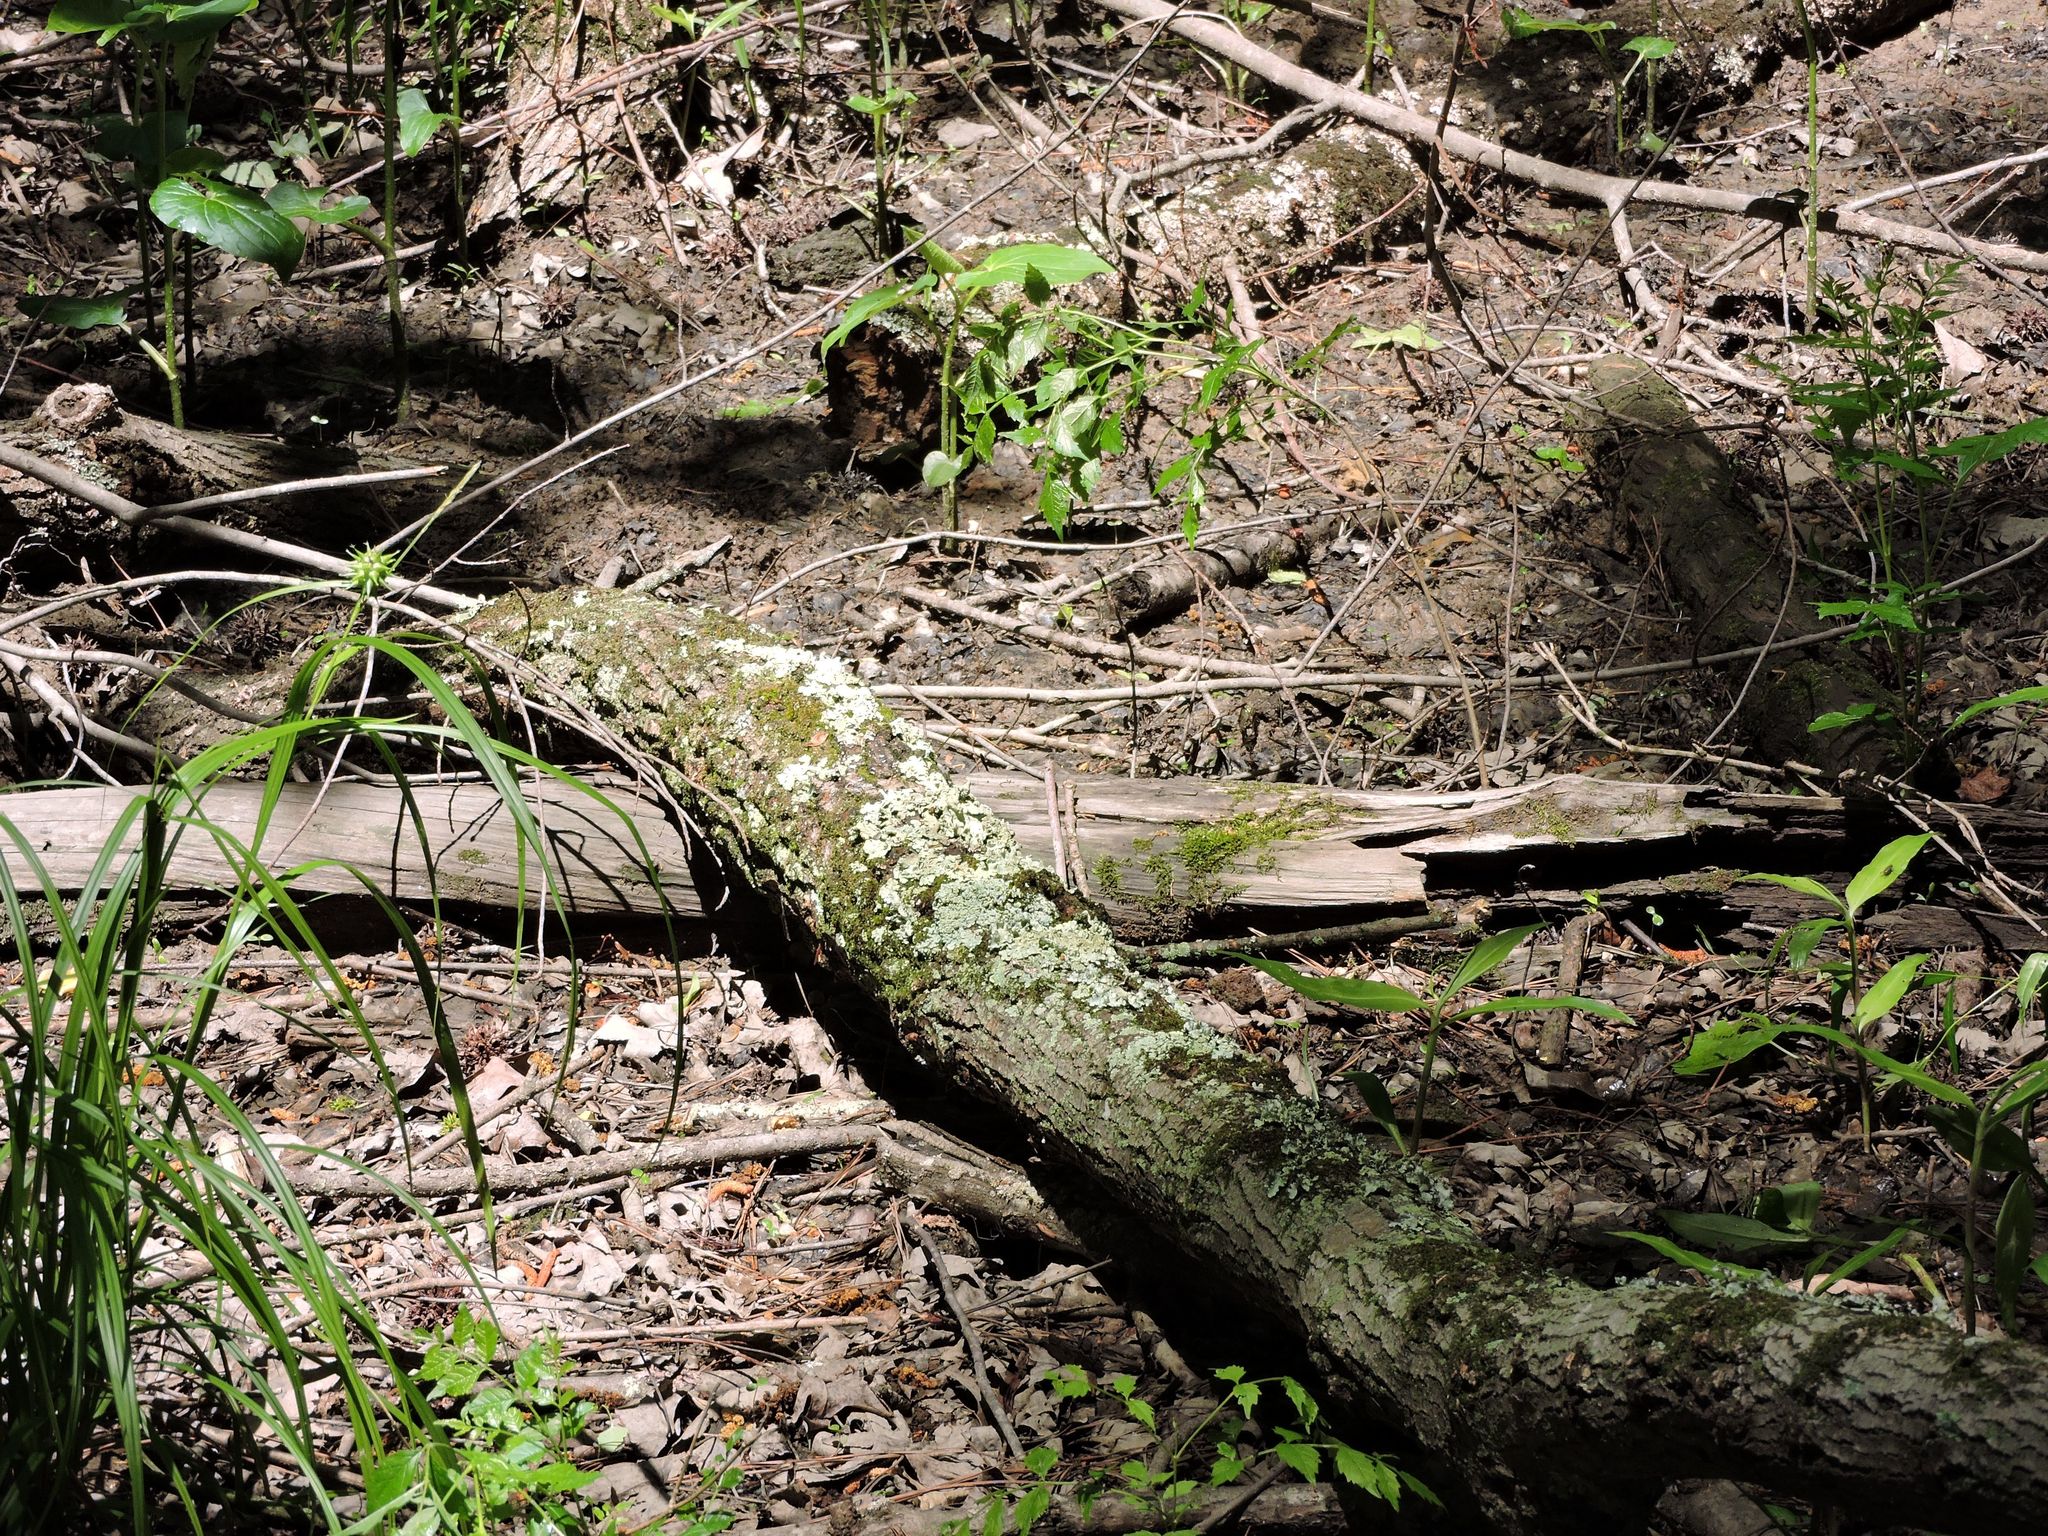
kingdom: Fungi
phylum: Ascomycota
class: Lecanoromycetes
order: Lecanorales
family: Parmeliaceae
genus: Punctelia
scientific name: Punctelia rudecta
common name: Rough speckled shield lichen
